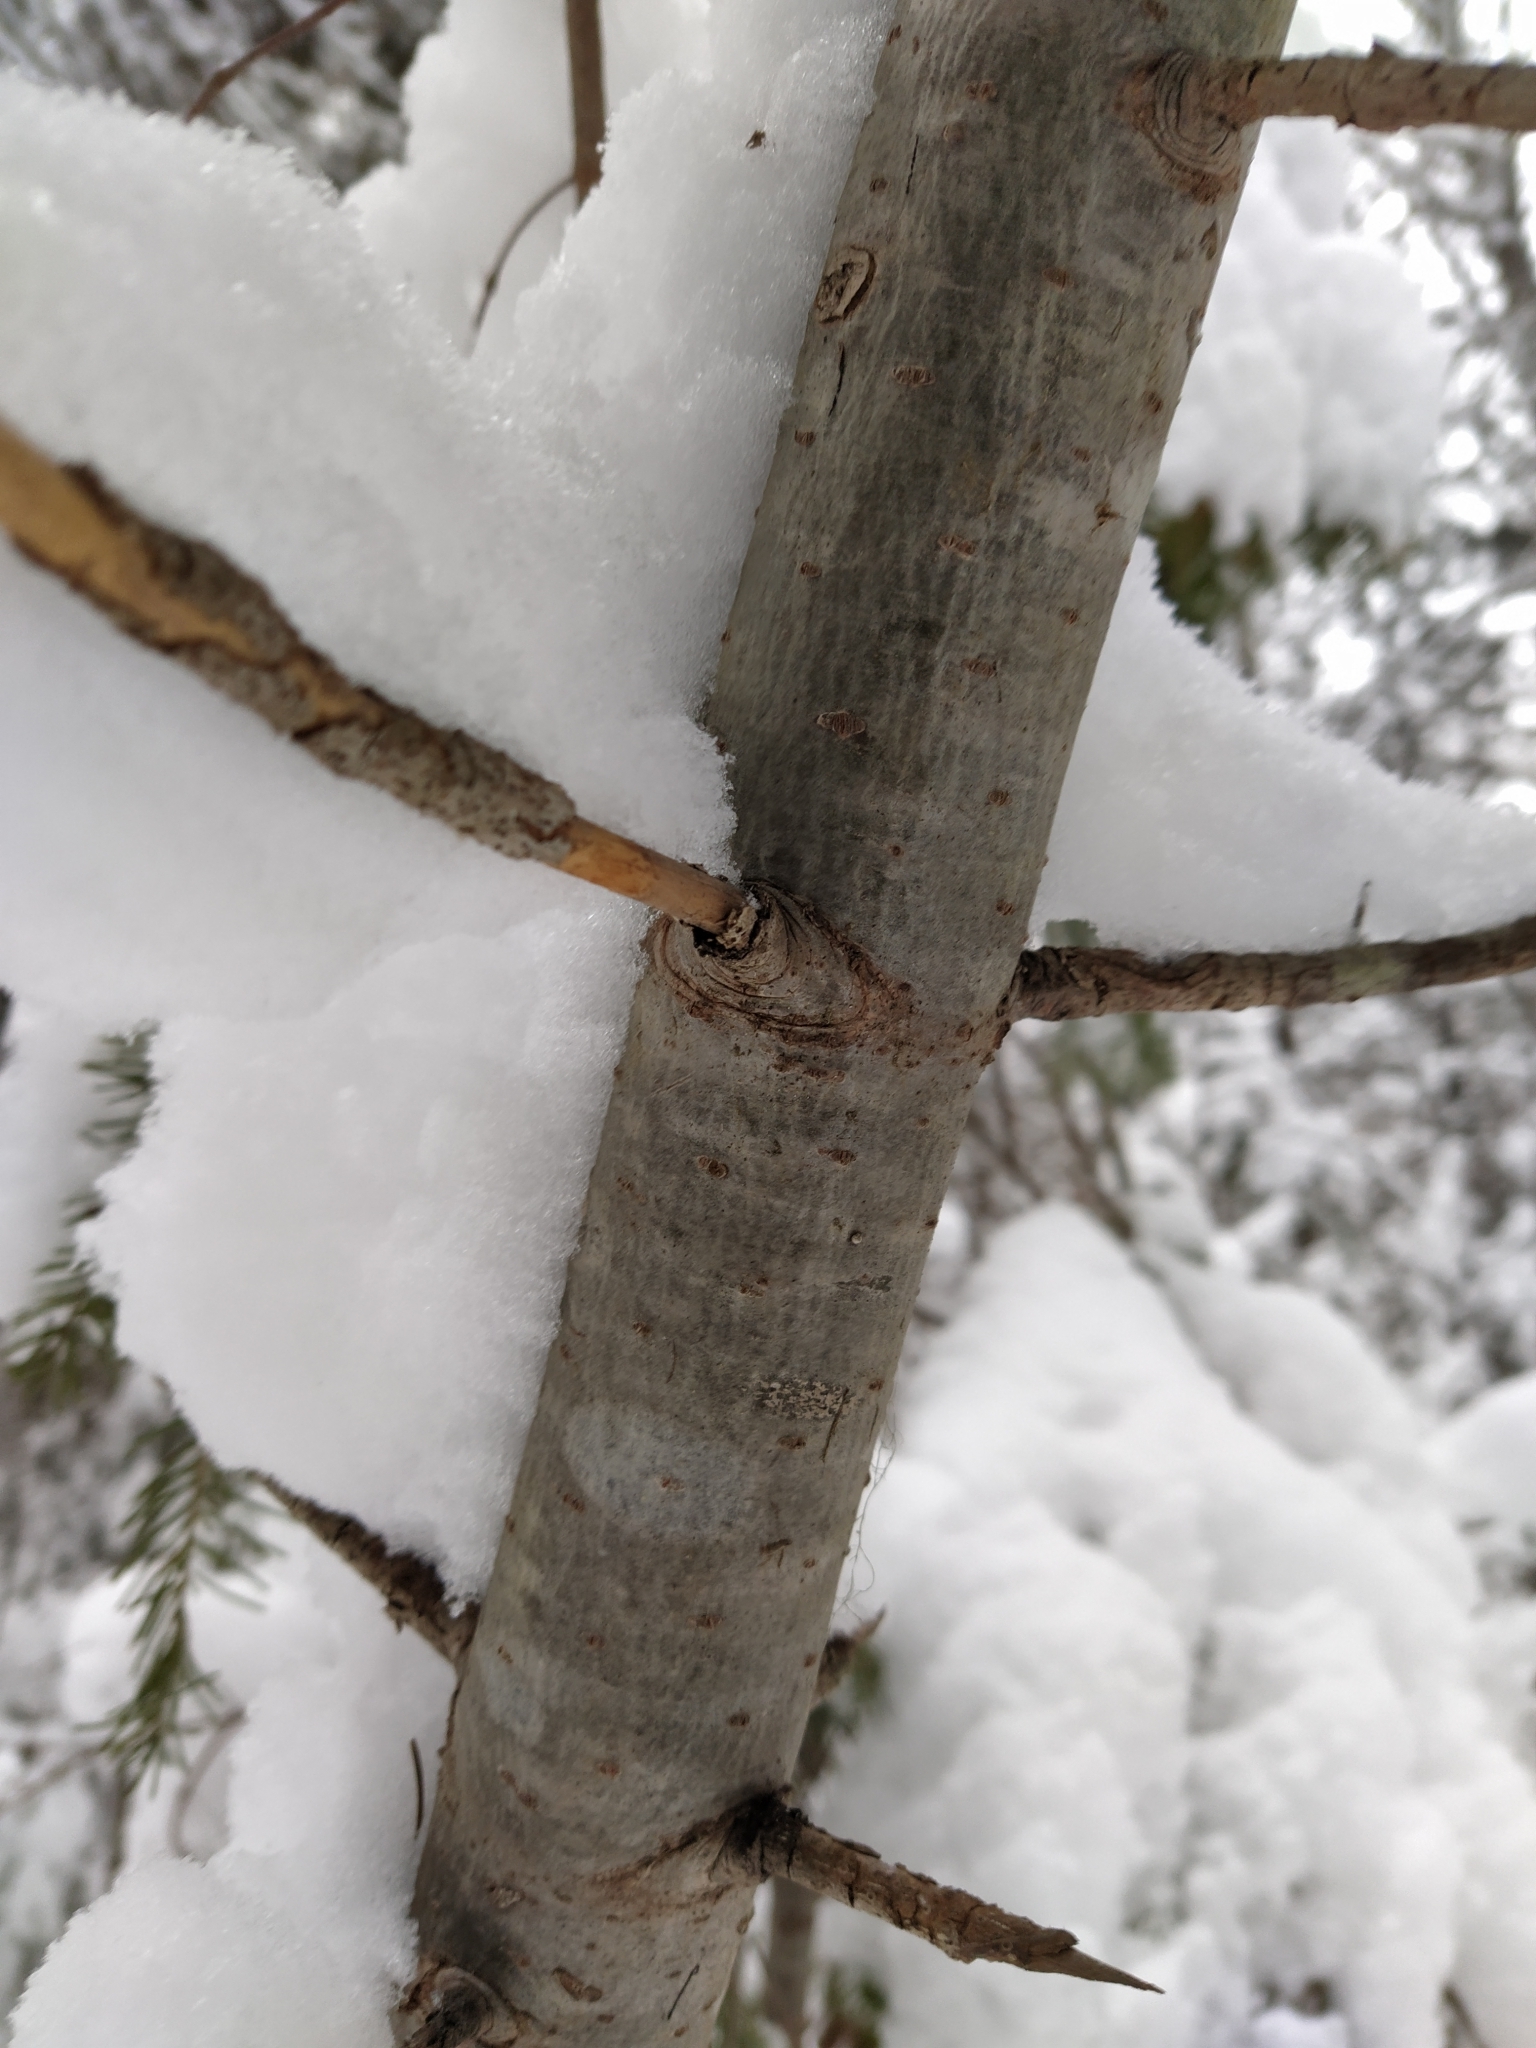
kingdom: Plantae
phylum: Tracheophyta
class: Pinopsida
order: Pinales
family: Pinaceae
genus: Abies
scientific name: Abies sibirica
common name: Siberian fir
